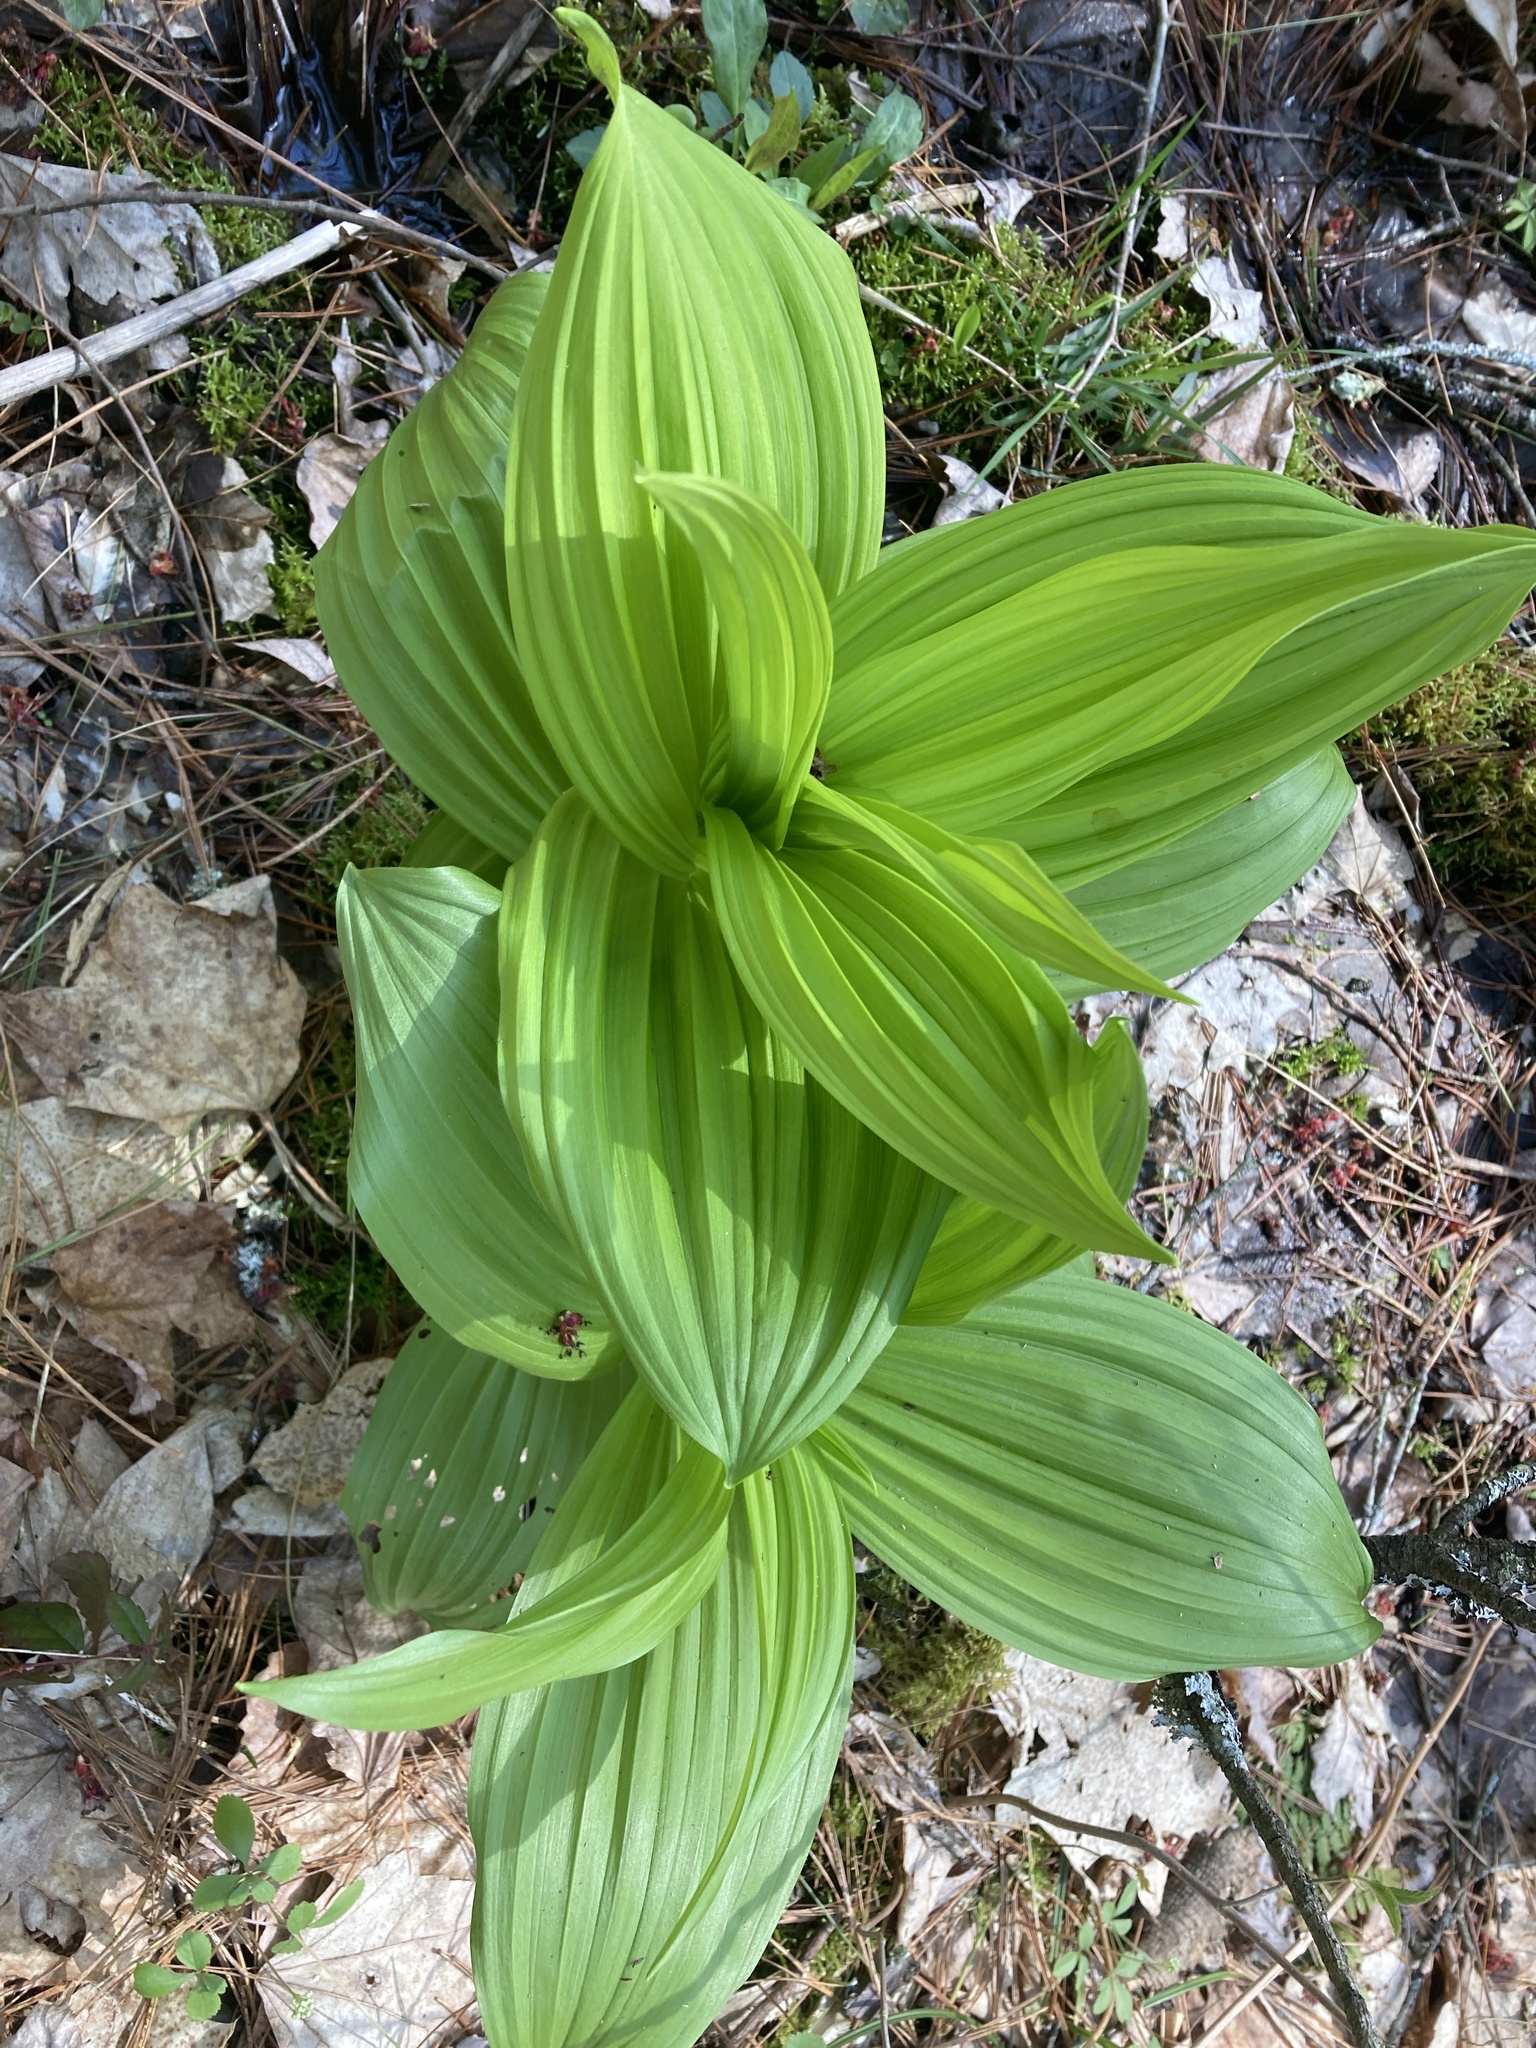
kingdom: Plantae
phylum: Tracheophyta
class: Liliopsida
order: Liliales
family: Melanthiaceae
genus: Veratrum
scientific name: Veratrum viride
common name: American false hellebore
